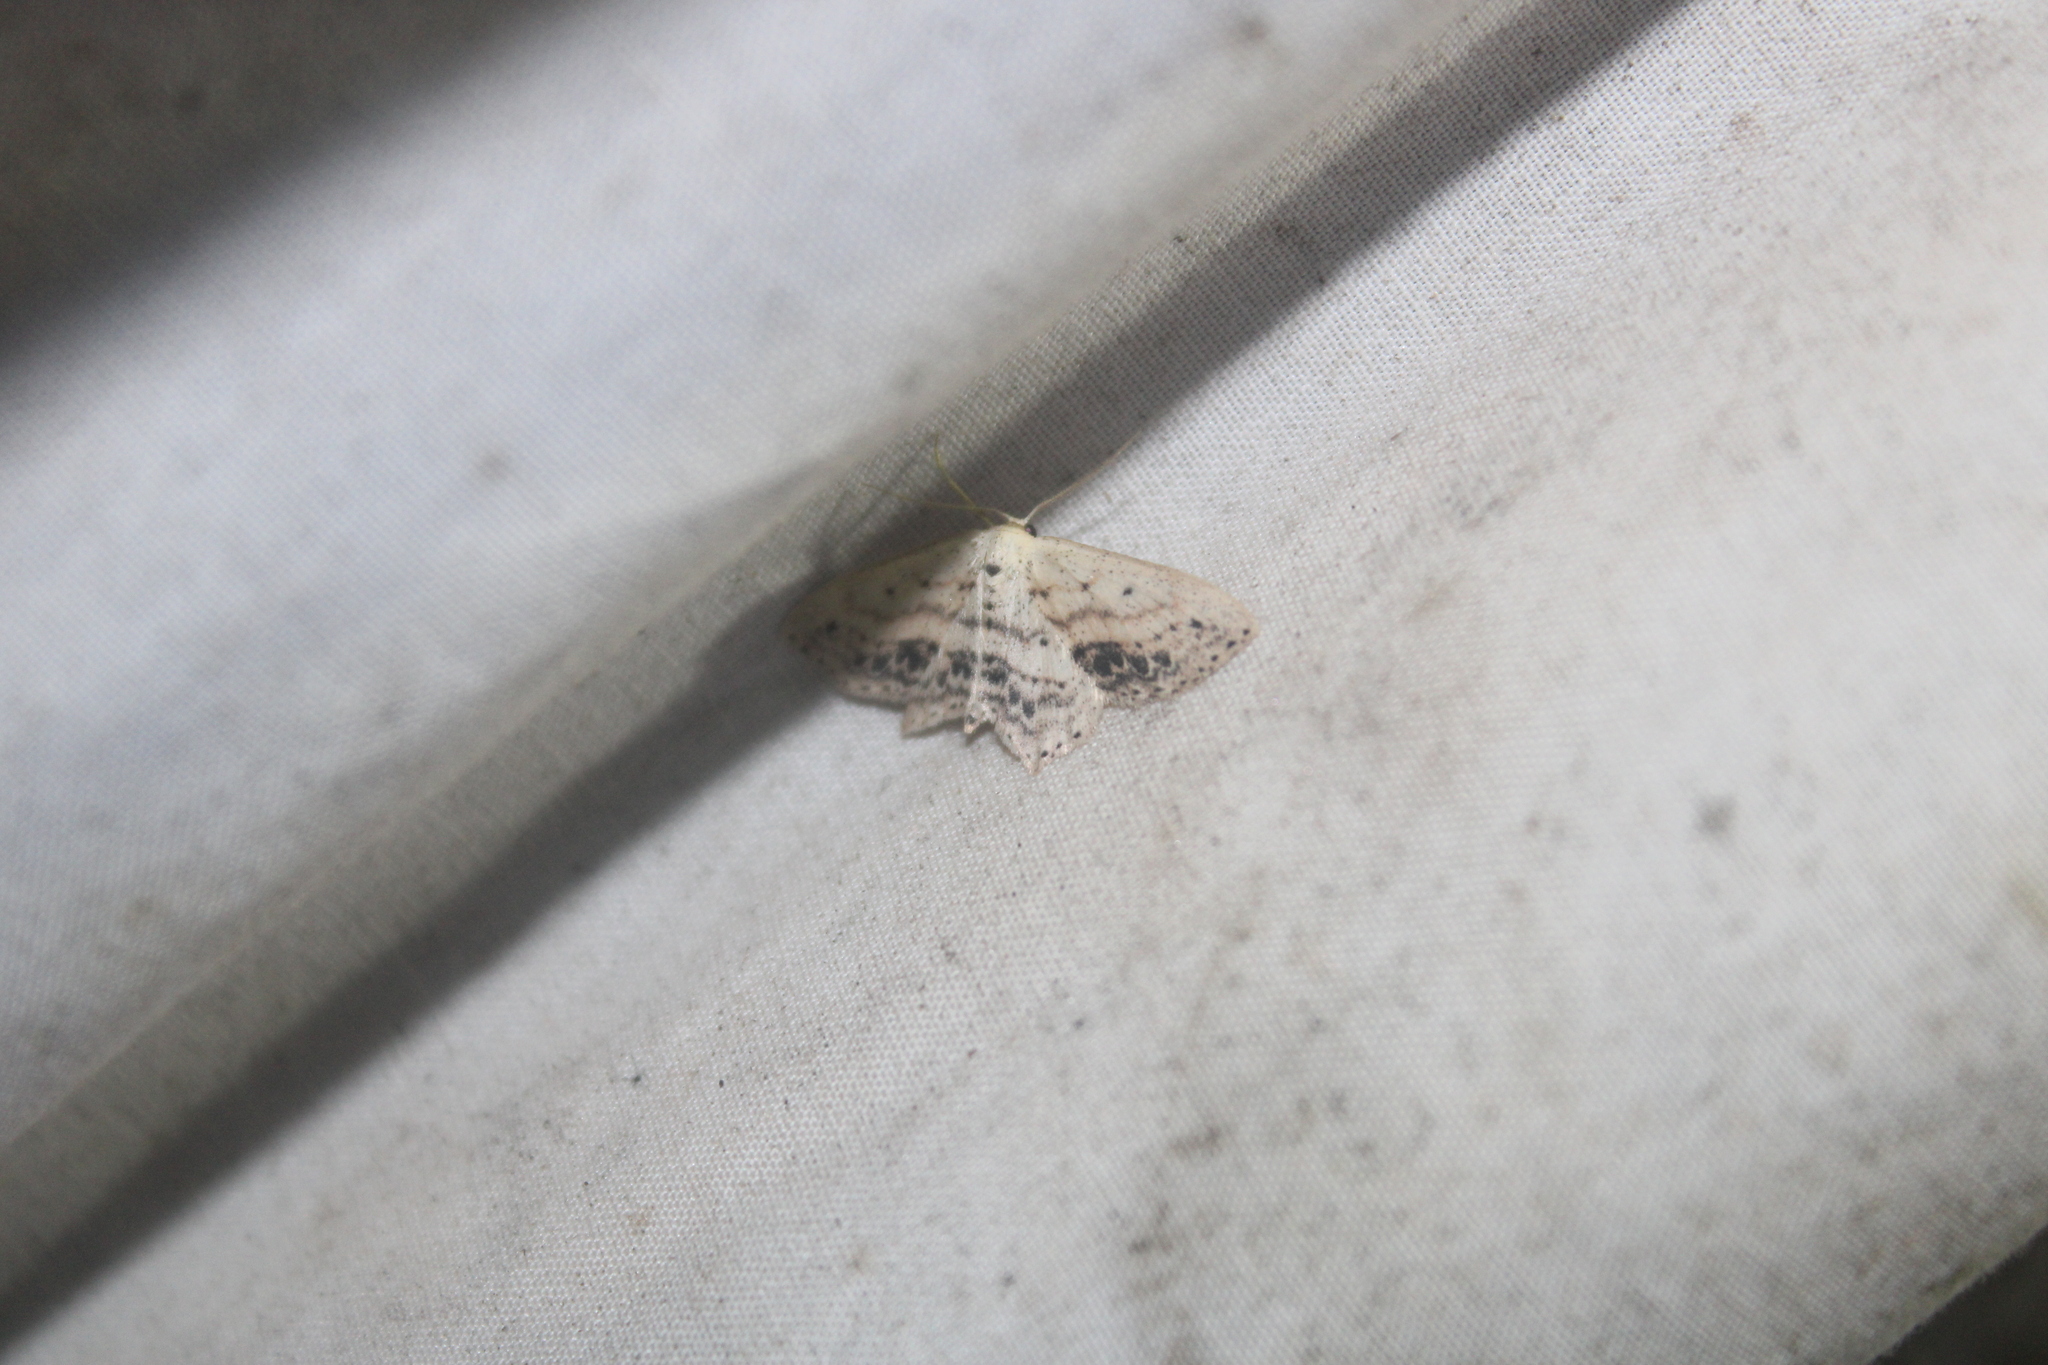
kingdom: Animalia
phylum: Arthropoda
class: Insecta
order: Lepidoptera
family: Geometridae
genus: Scopula
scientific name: Scopula cacuminaria
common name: Frosted tan wave
